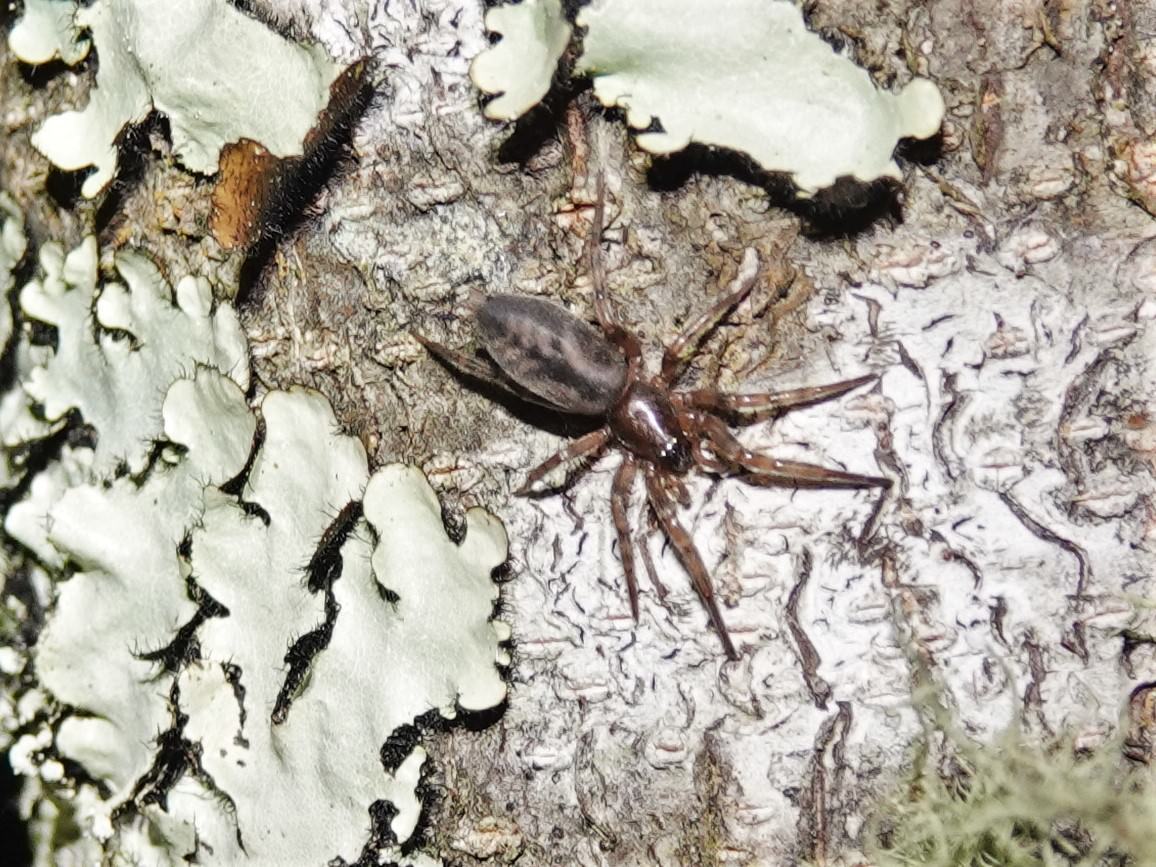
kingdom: Animalia
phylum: Arthropoda
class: Arachnida
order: Araneae
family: Gnaphosidae
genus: Intruda
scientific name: Intruda signata
